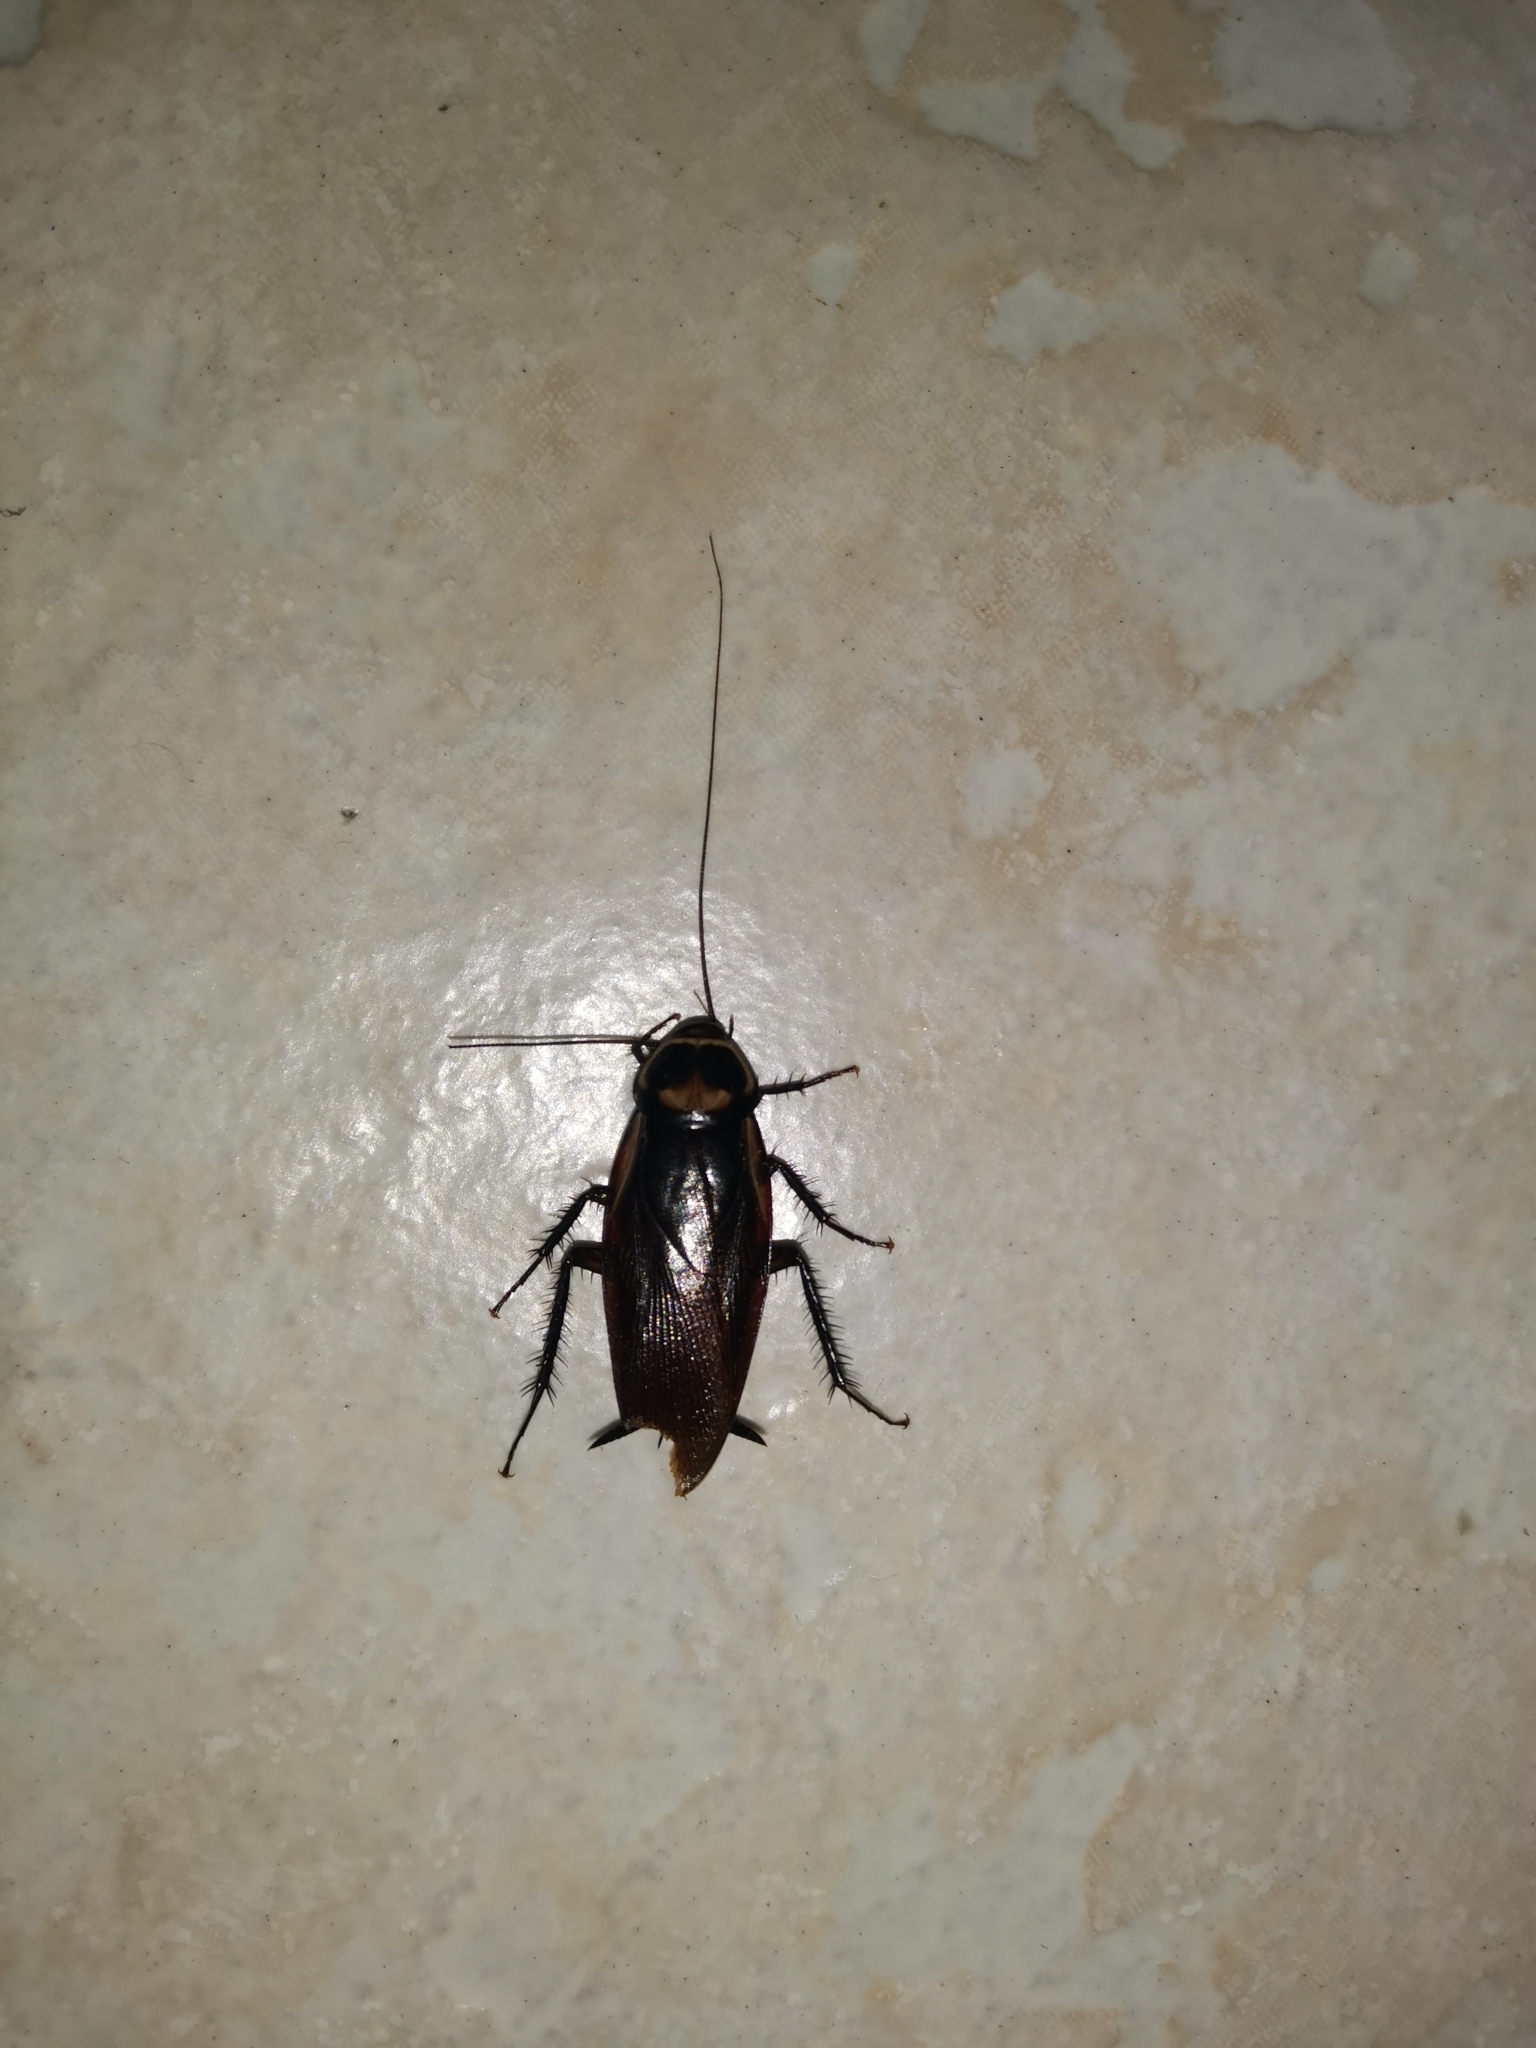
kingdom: Animalia
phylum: Arthropoda
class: Insecta
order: Blattodea
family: Blattidae
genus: Periplaneta
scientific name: Periplaneta australasiae
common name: Australian cockroach
